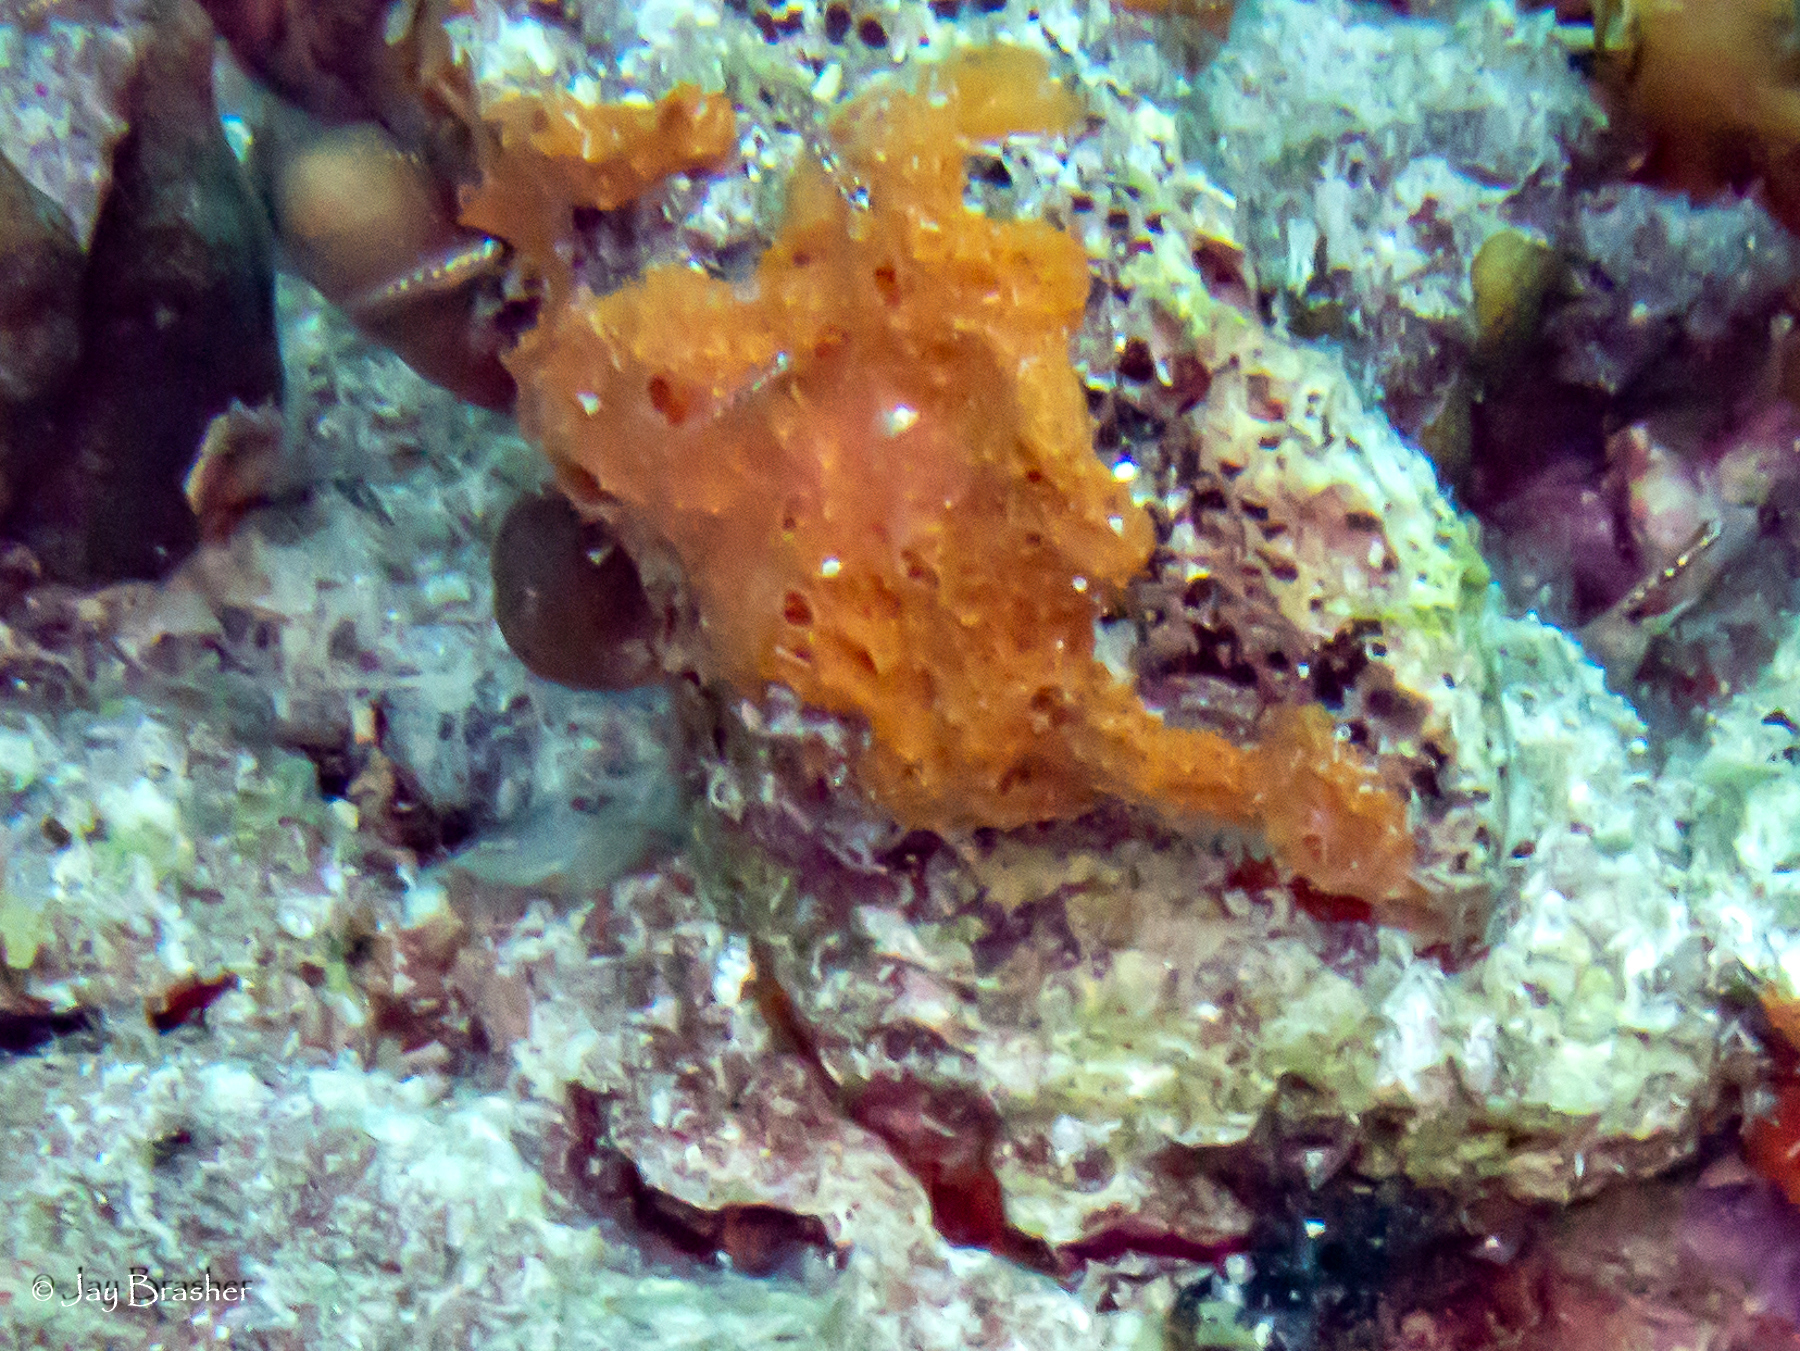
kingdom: Animalia
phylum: Porifera
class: Demospongiae
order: Scopalinida
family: Scopalinidae
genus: Scopalina
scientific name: Scopalina ruetzleri
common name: Orange lumpy encrusting sponge
